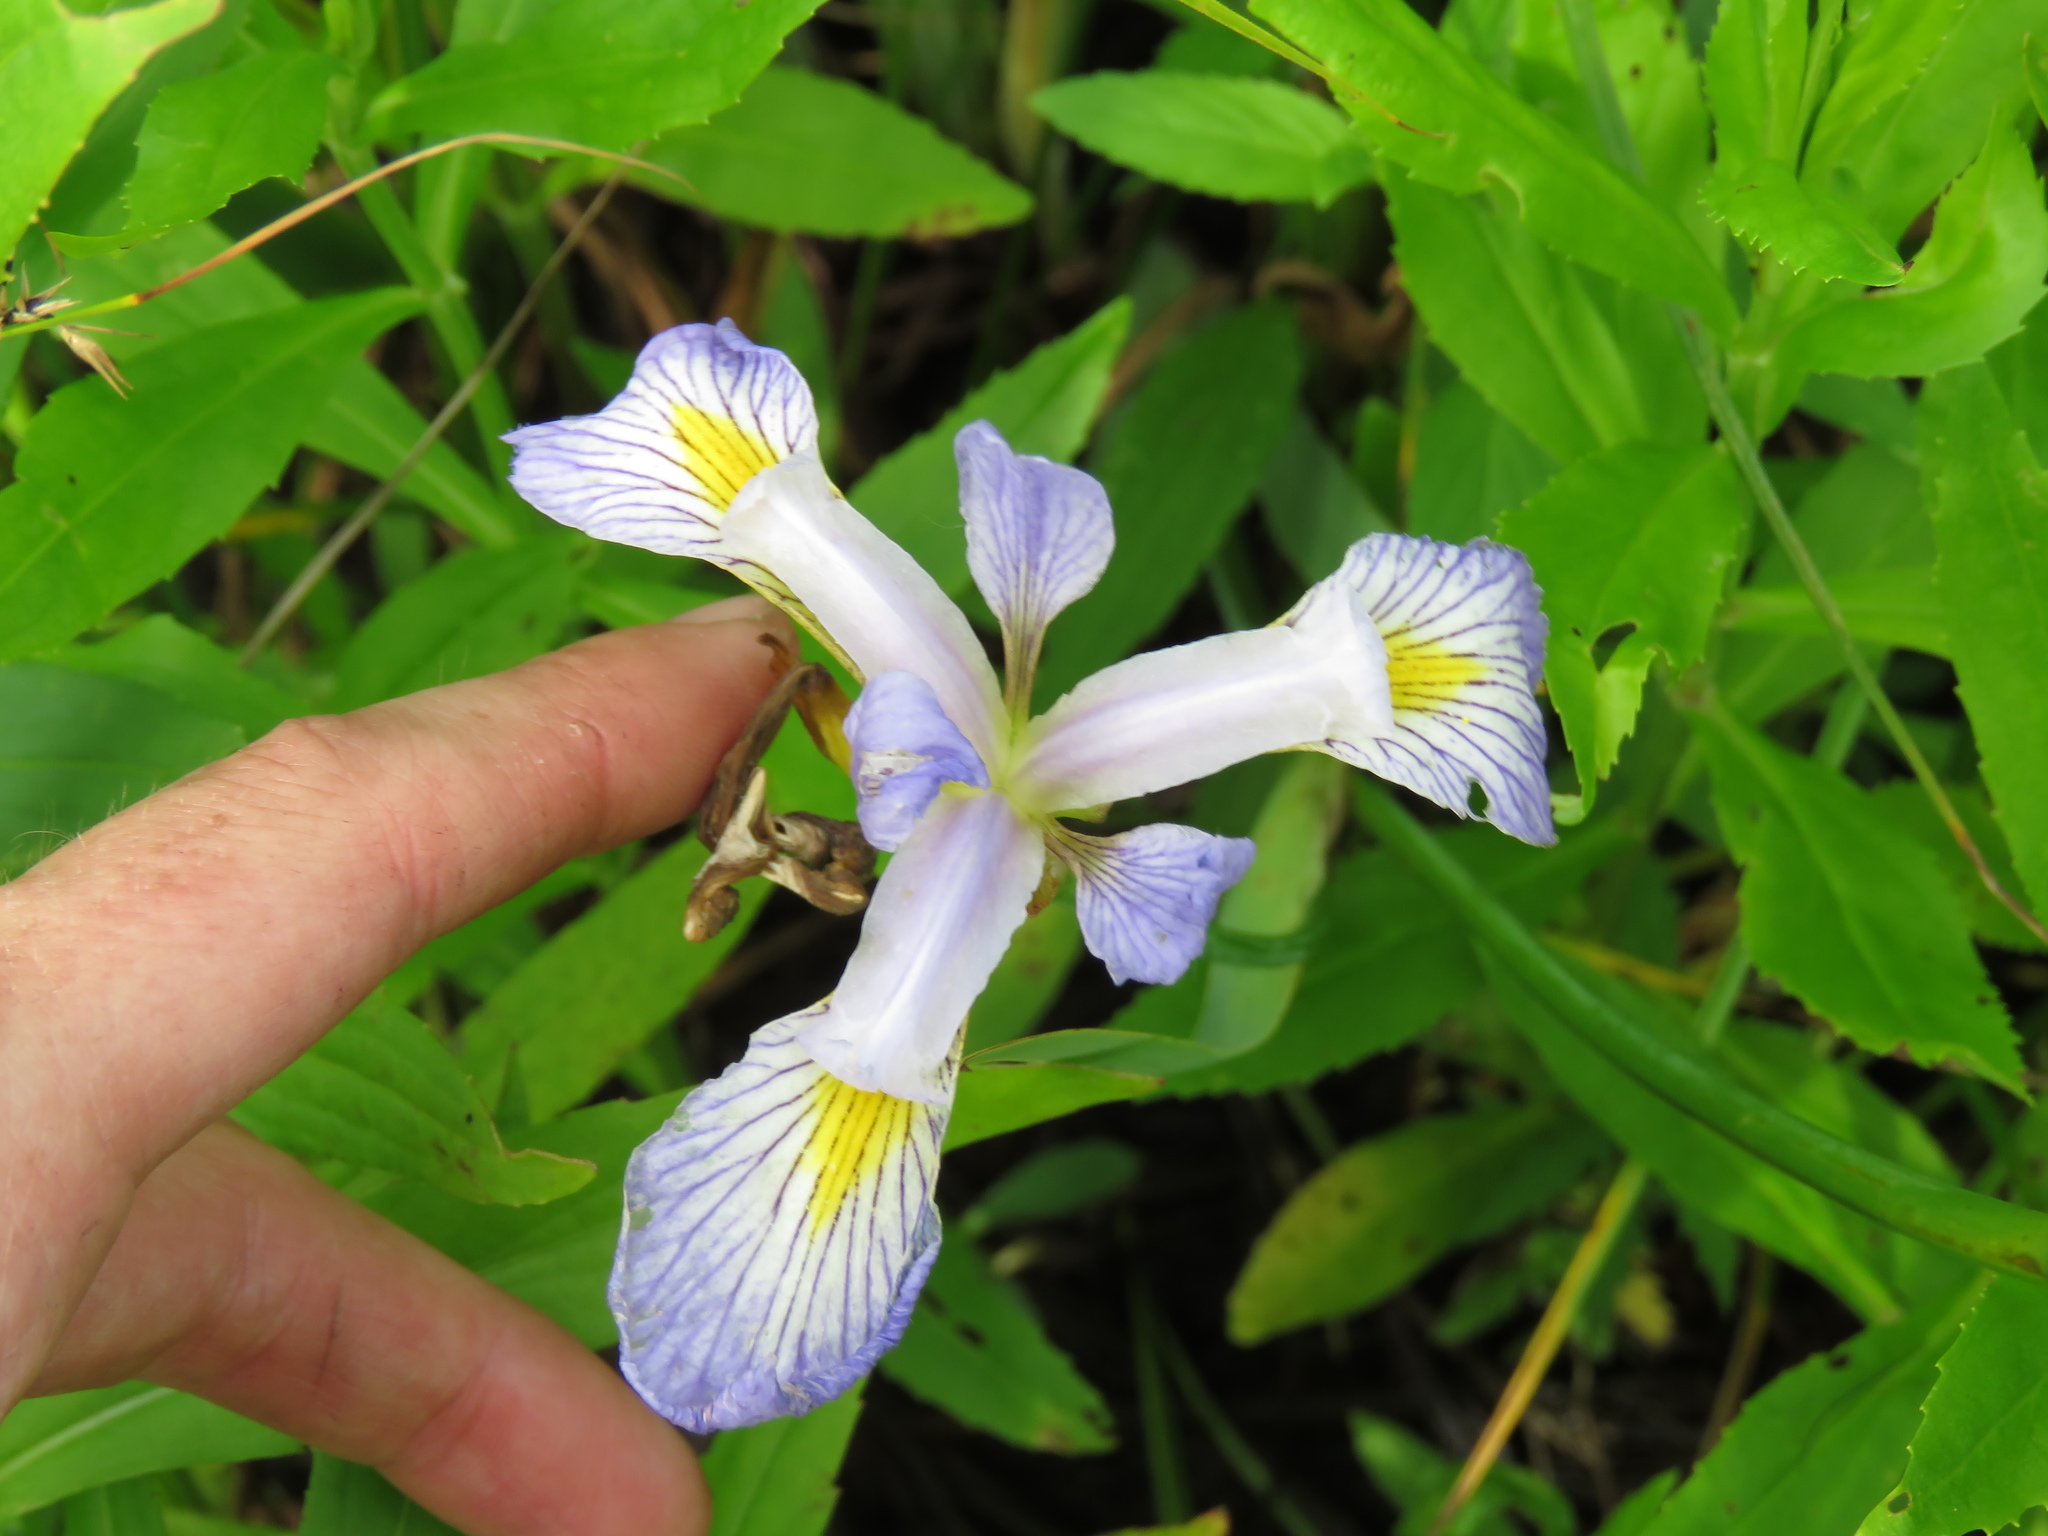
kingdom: Plantae
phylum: Tracheophyta
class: Liliopsida
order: Asparagales
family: Iridaceae
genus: Iris
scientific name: Iris virginica
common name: Southern blue flag
